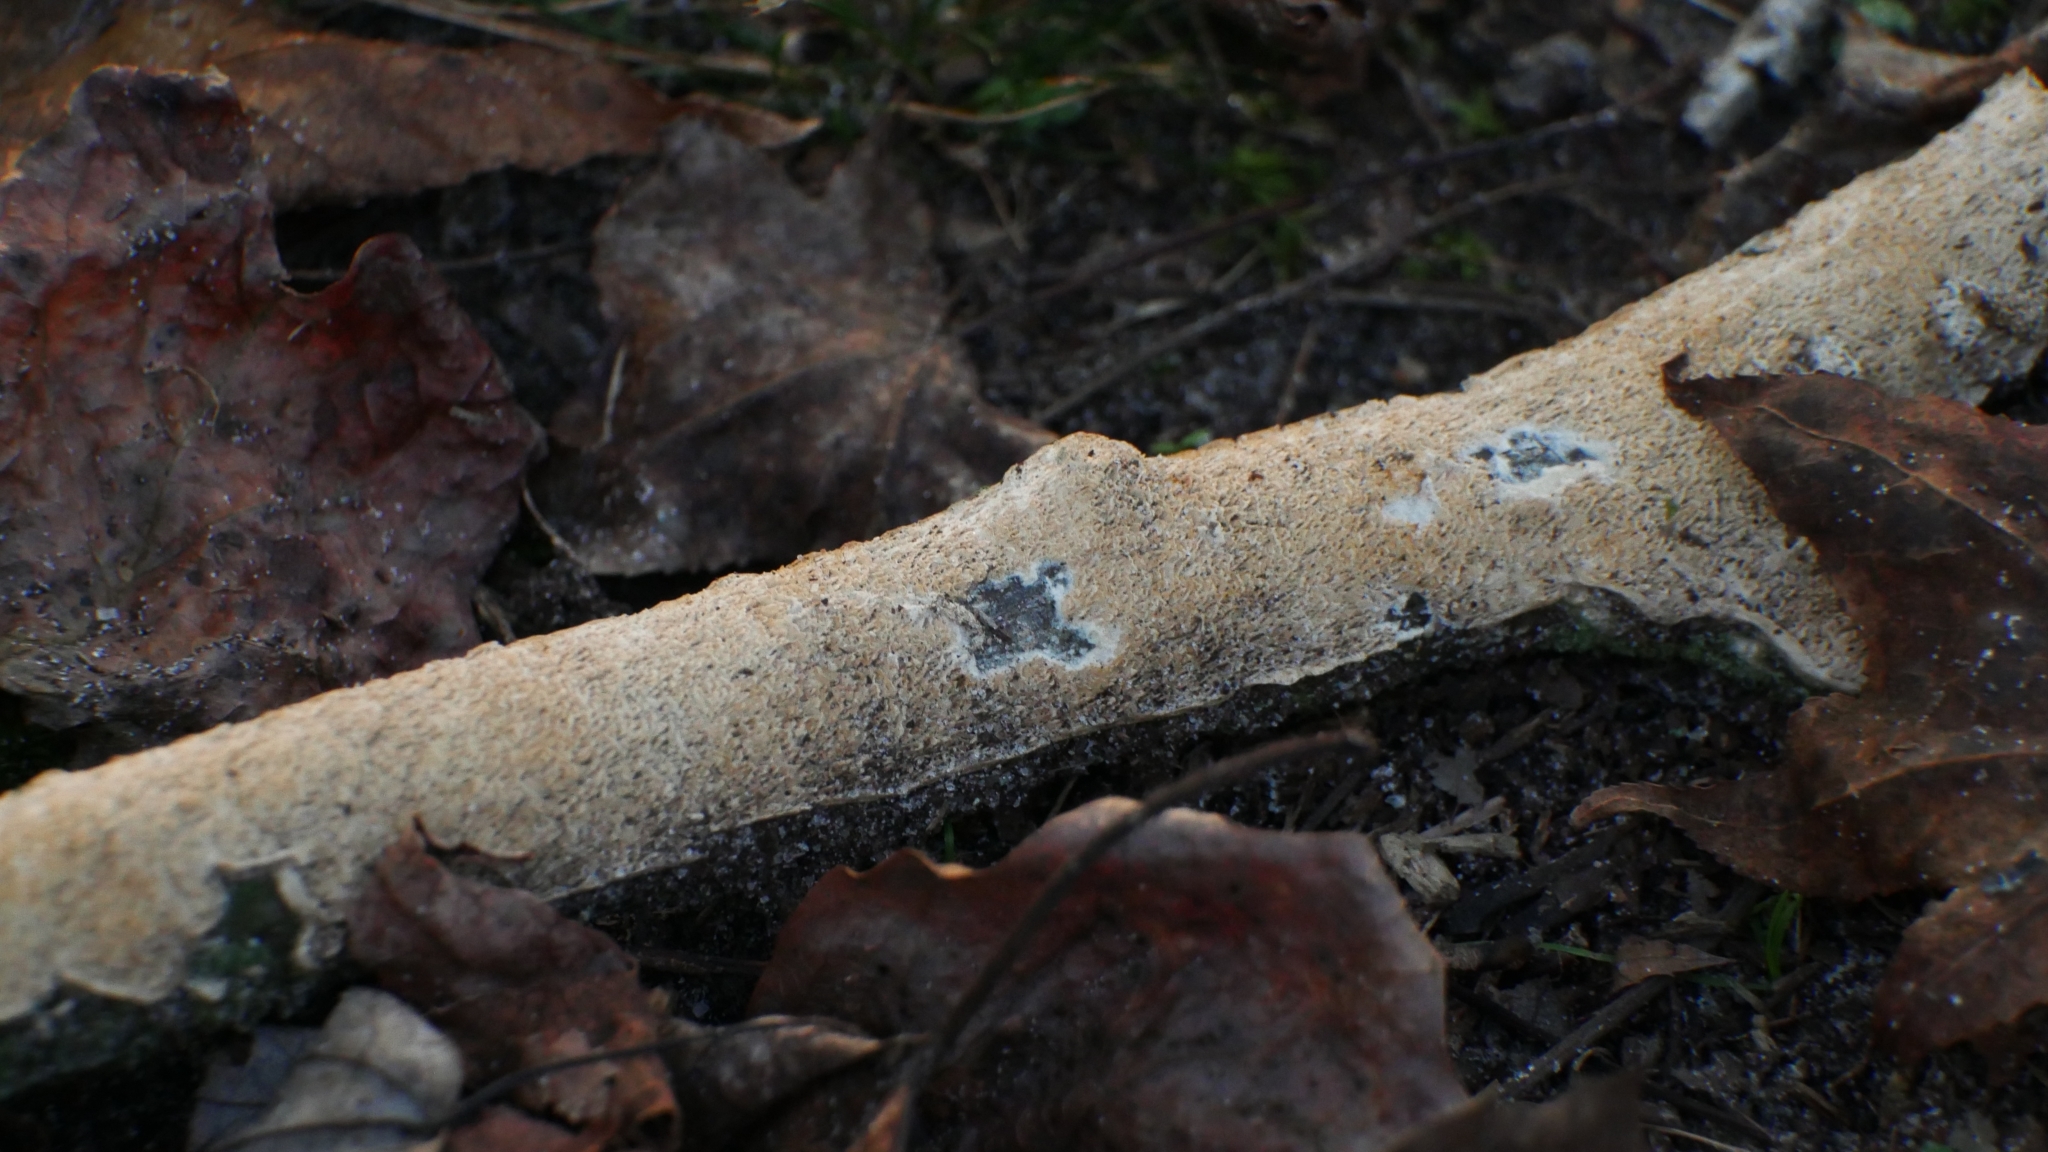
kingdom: Fungi
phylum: Basidiomycota
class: Agaricomycetes
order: Polyporales
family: Irpicaceae
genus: Irpex
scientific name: Irpex lacteus
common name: Milk-white toothed polypore
